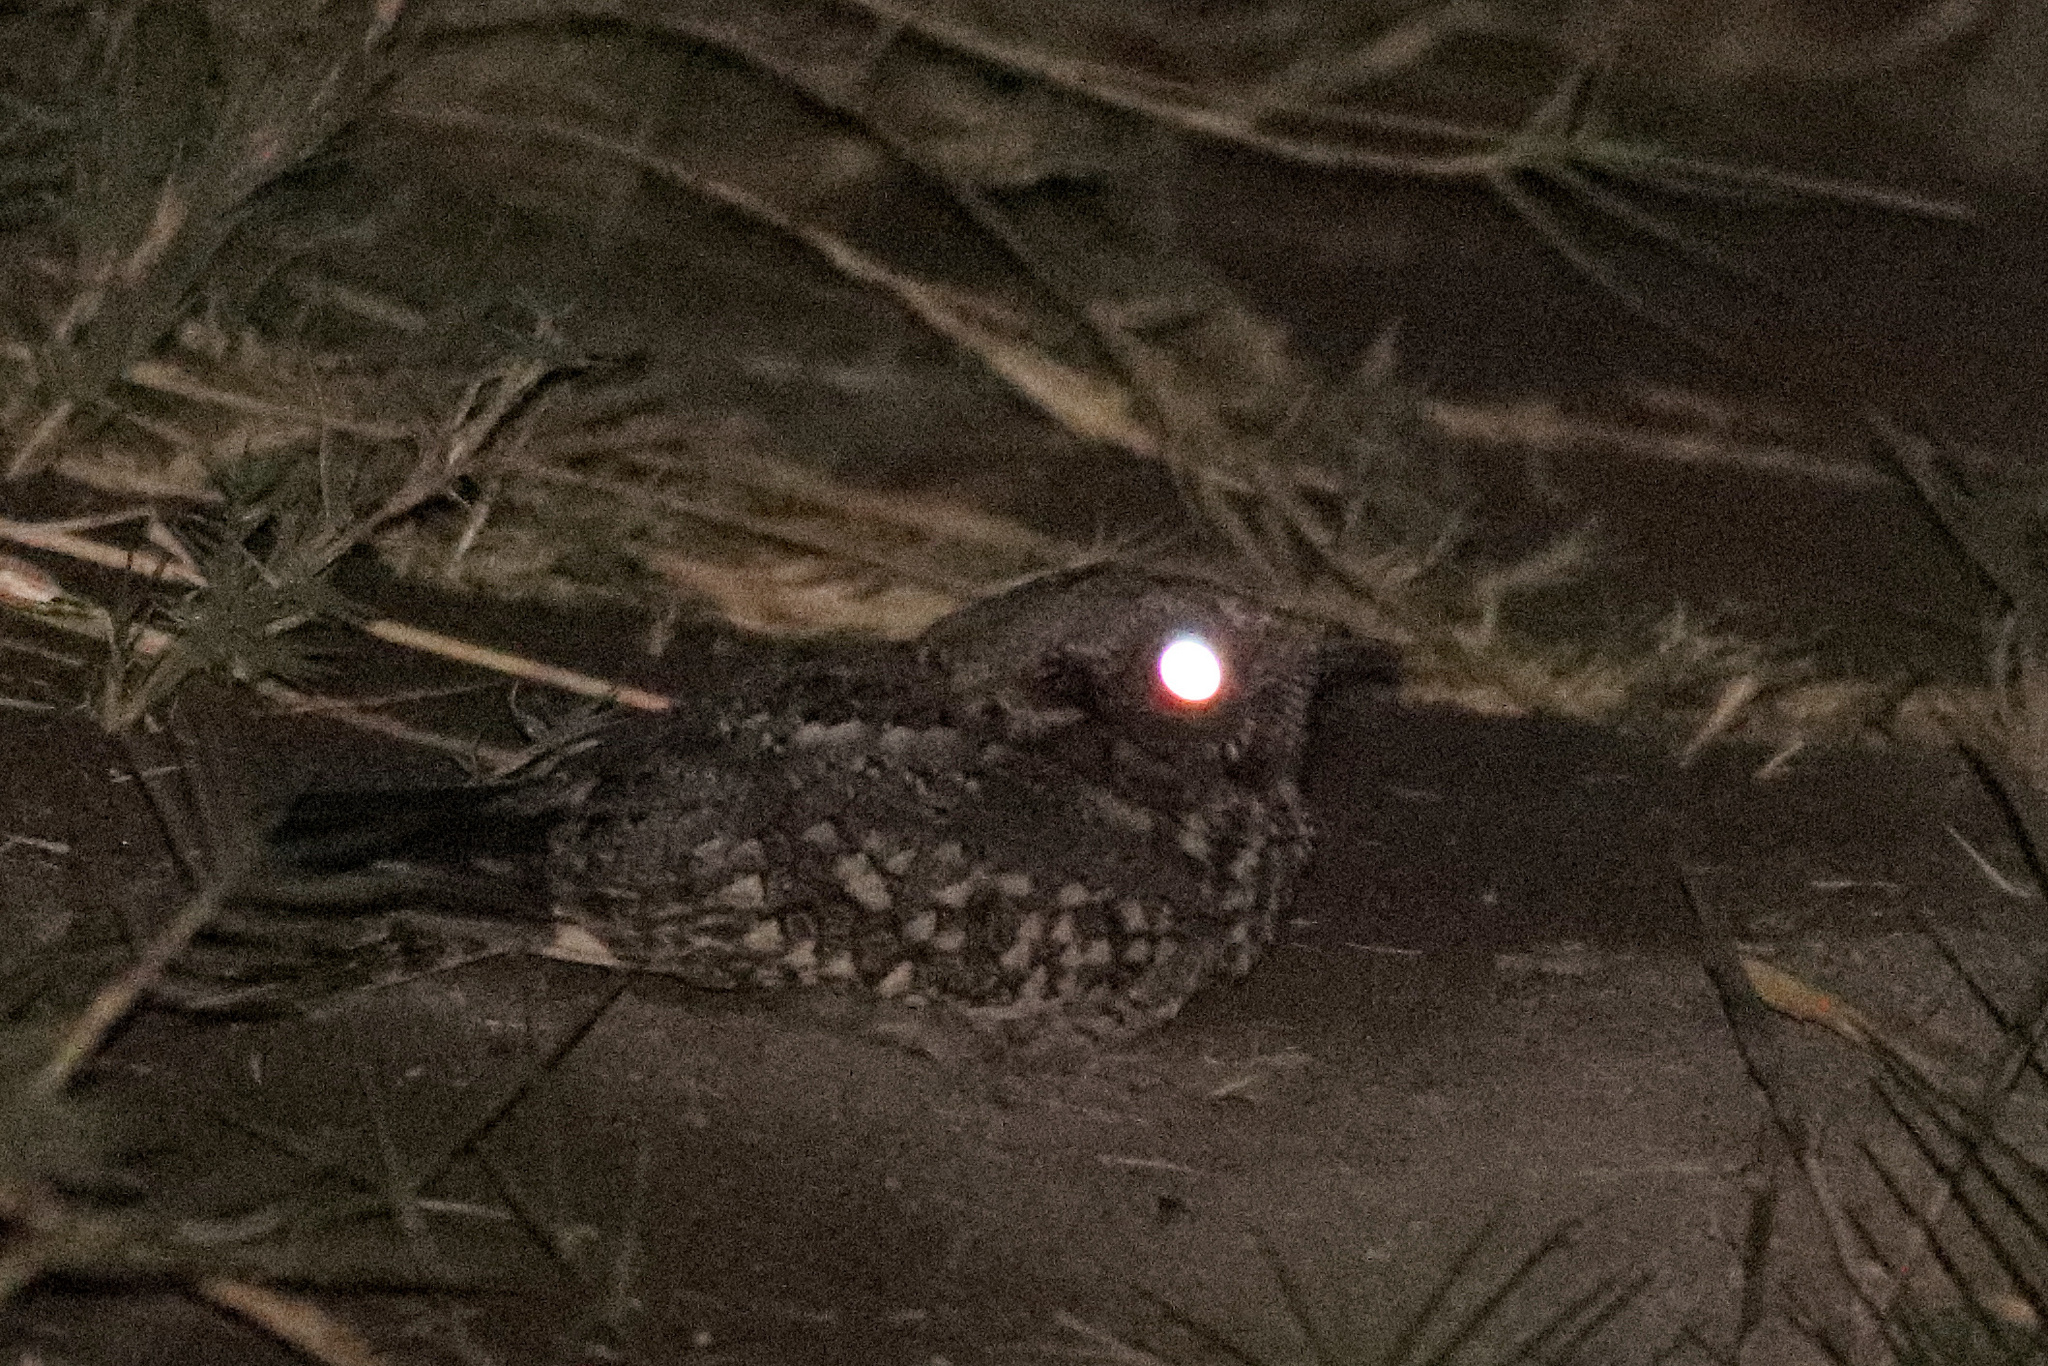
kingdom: Animalia
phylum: Chordata
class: Aves
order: Caprimulgiformes
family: Caprimulgidae
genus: Systellura
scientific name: Systellura decussata
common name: Tschudi's nightjar
